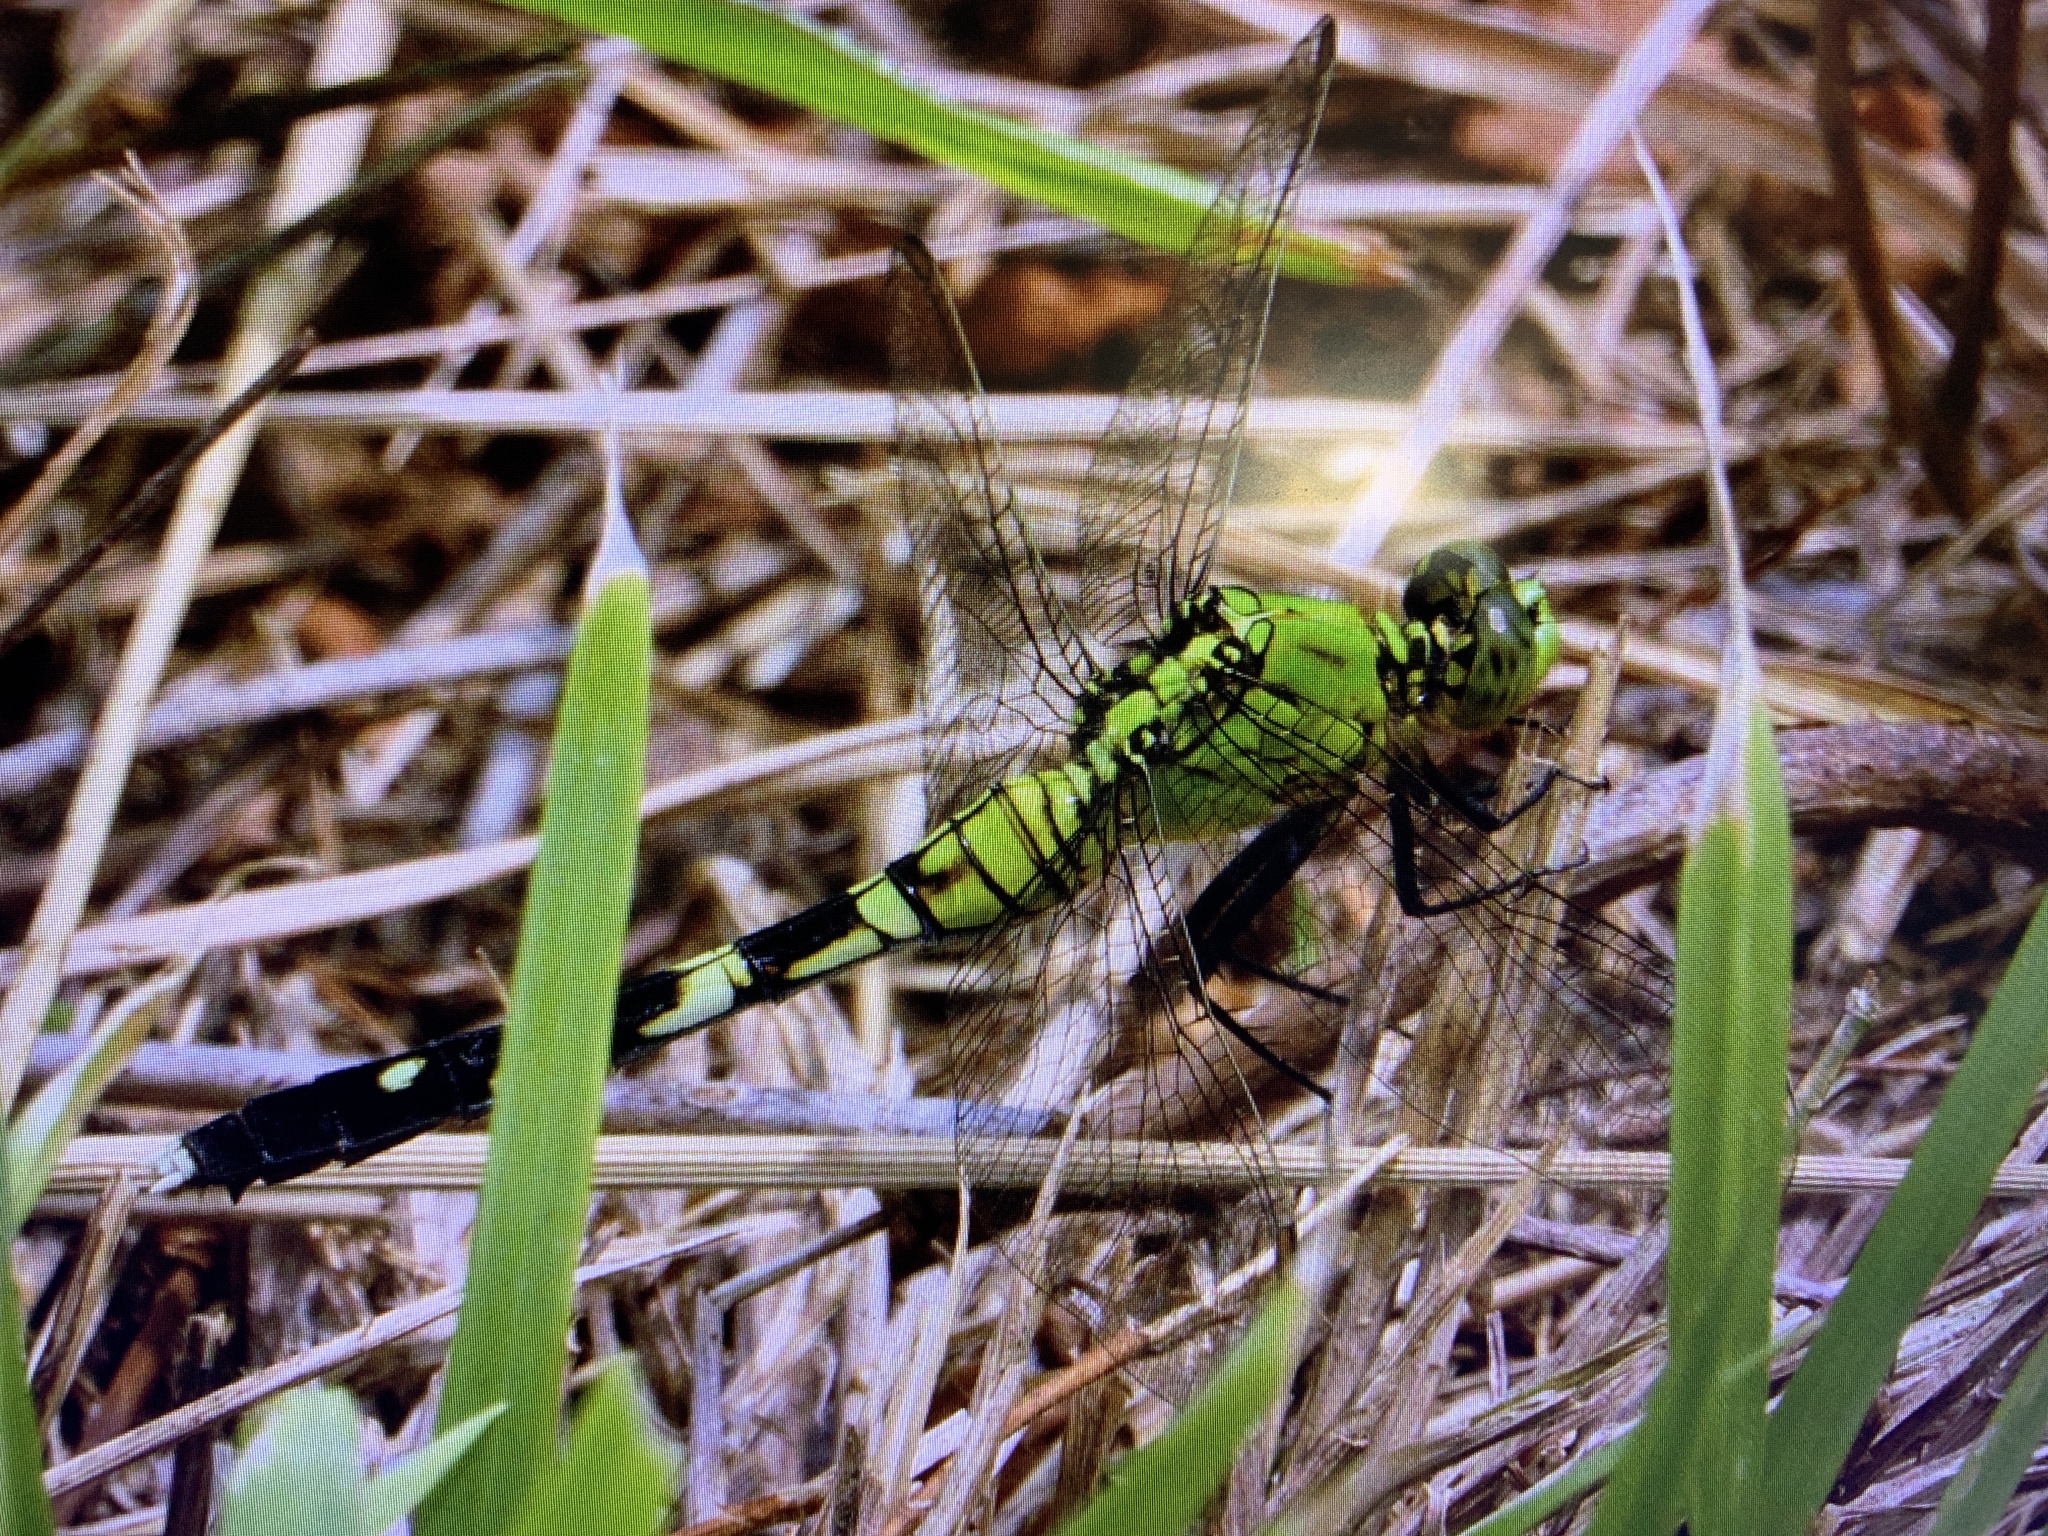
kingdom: Animalia
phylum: Arthropoda
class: Insecta
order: Odonata
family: Libellulidae
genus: Erythemis
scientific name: Erythemis simplicicollis
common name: Eastern pondhawk
